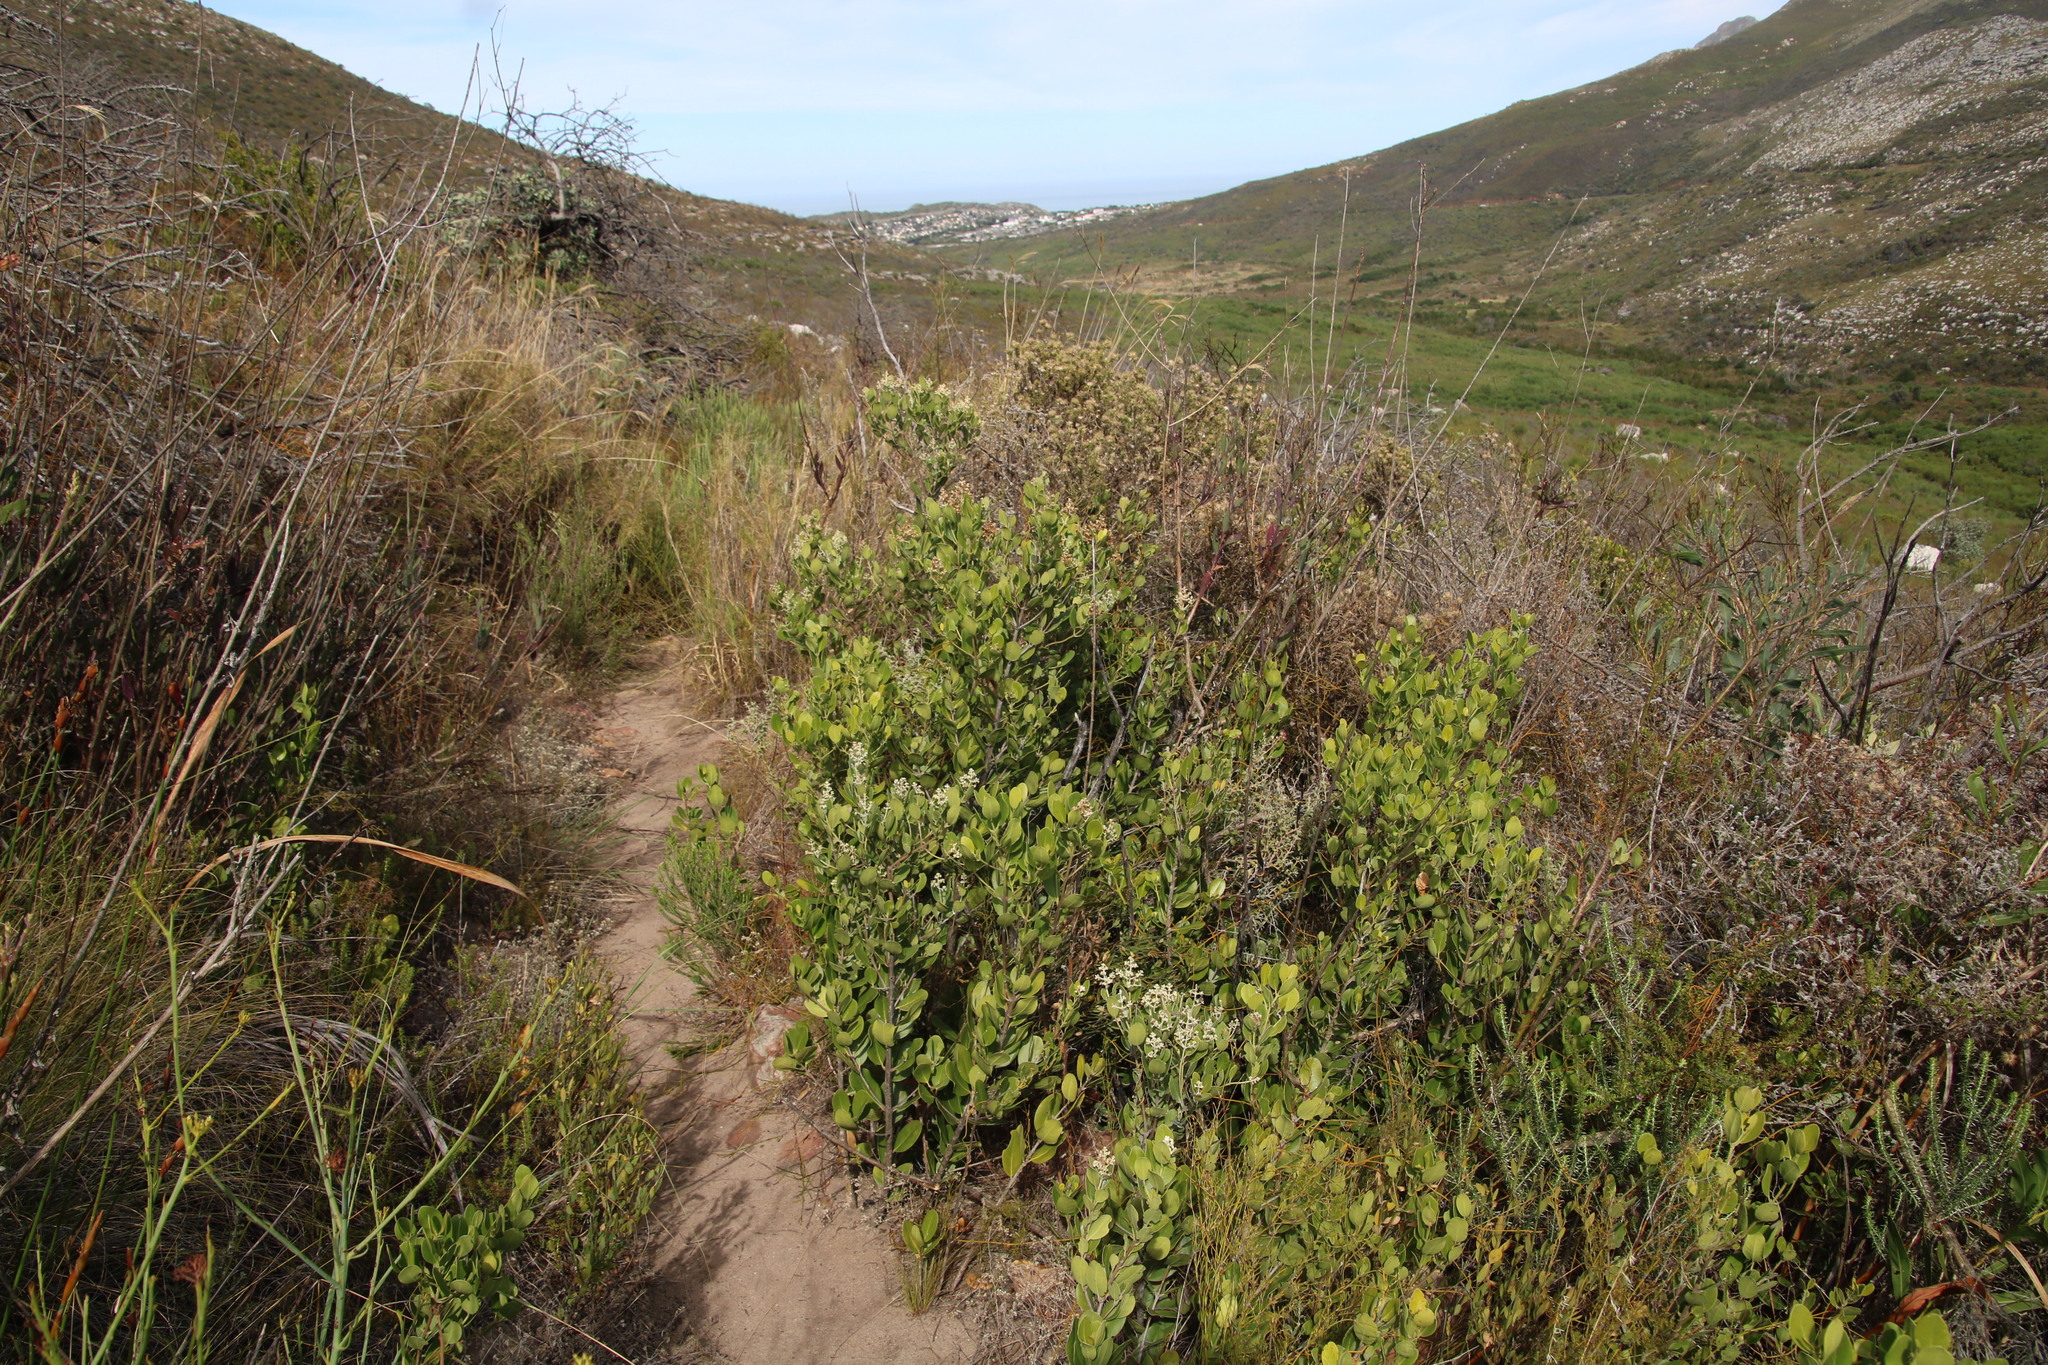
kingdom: Plantae
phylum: Tracheophyta
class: Magnoliopsida
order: Lamiales
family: Oleaceae
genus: Olea
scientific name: Olea capensis
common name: Black ironwood
